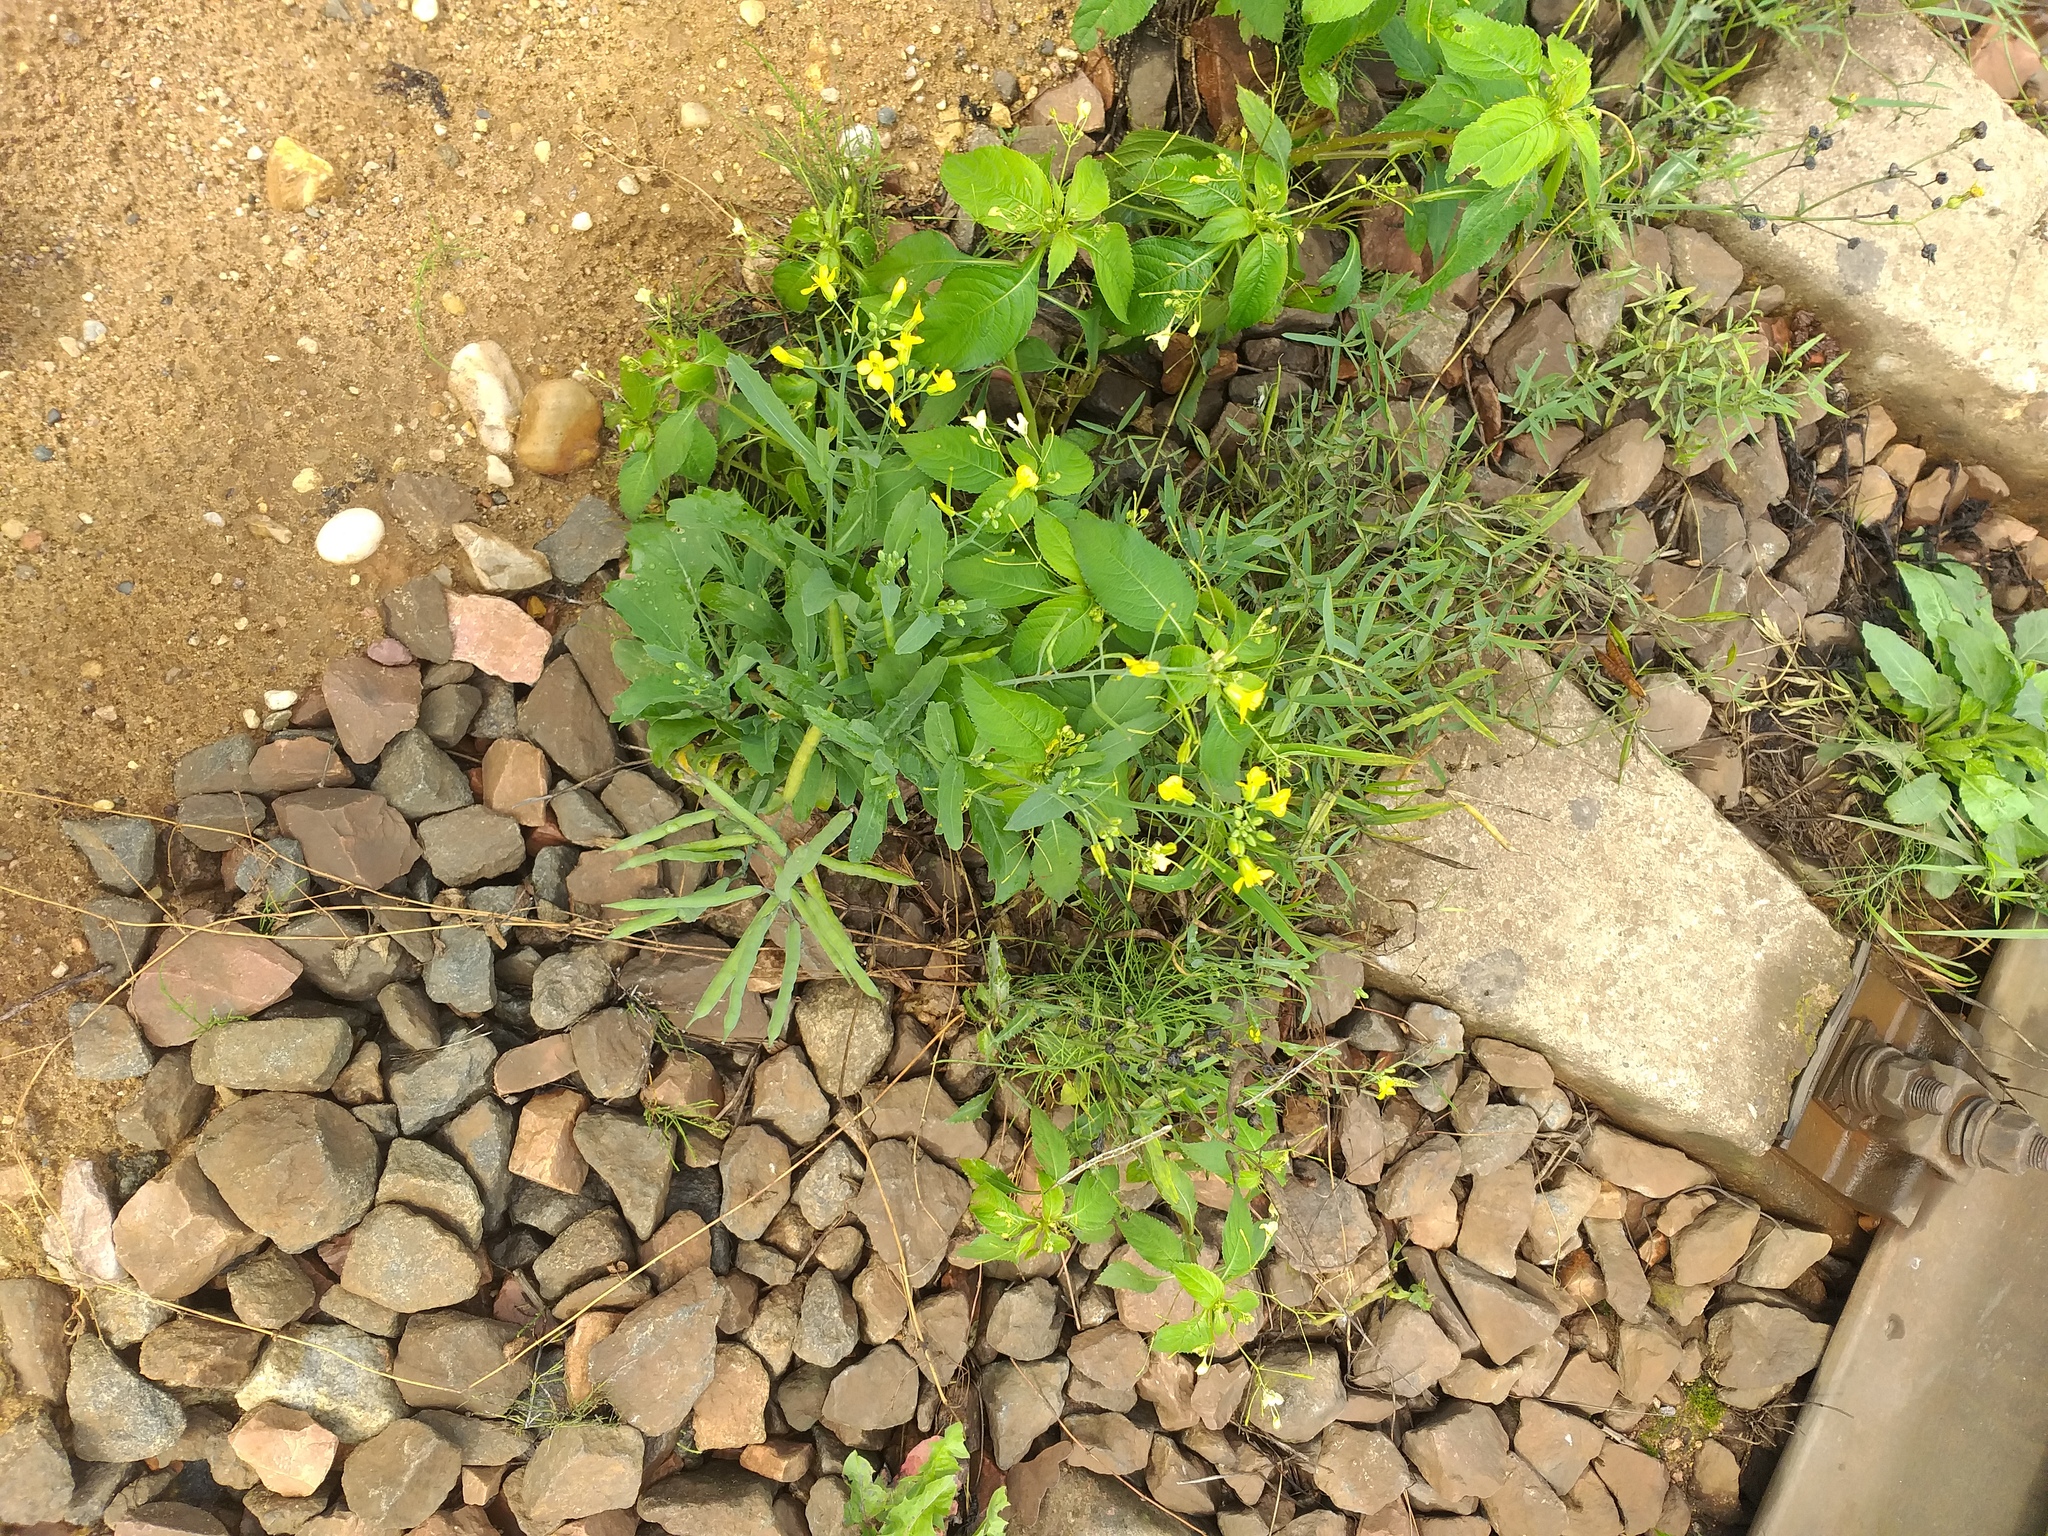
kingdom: Plantae
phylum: Tracheophyta
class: Magnoliopsida
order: Brassicales
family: Brassicaceae
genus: Brassica
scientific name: Brassica napus
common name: Rape
